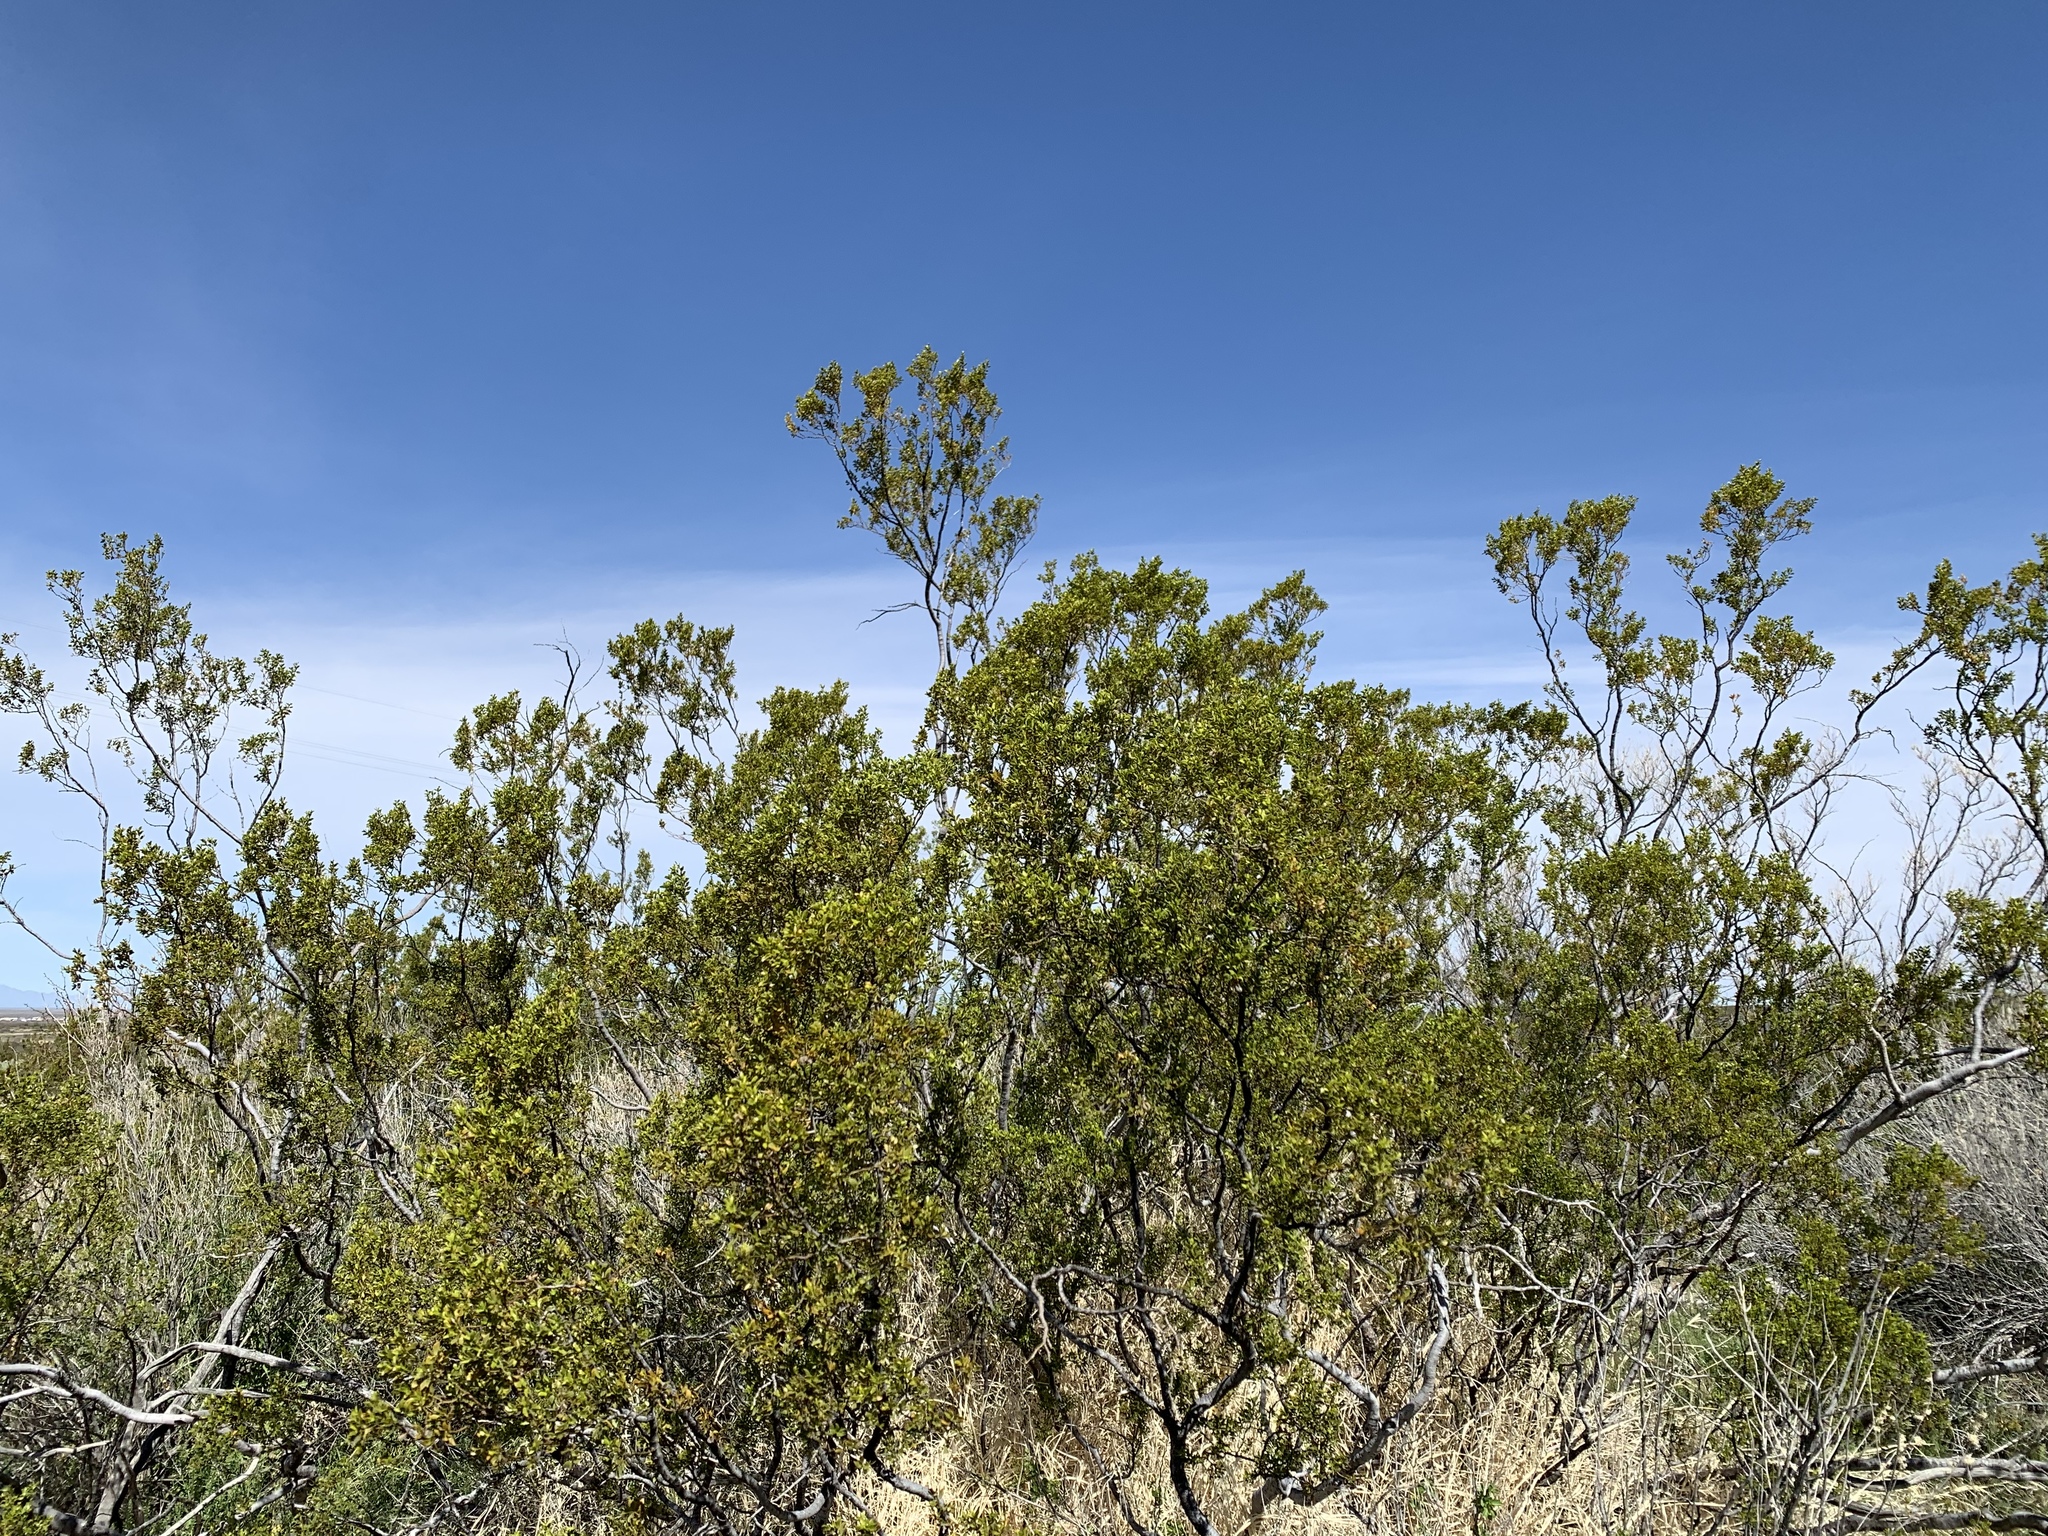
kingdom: Plantae
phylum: Tracheophyta
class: Magnoliopsida
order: Zygophyllales
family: Zygophyllaceae
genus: Larrea
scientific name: Larrea tridentata
